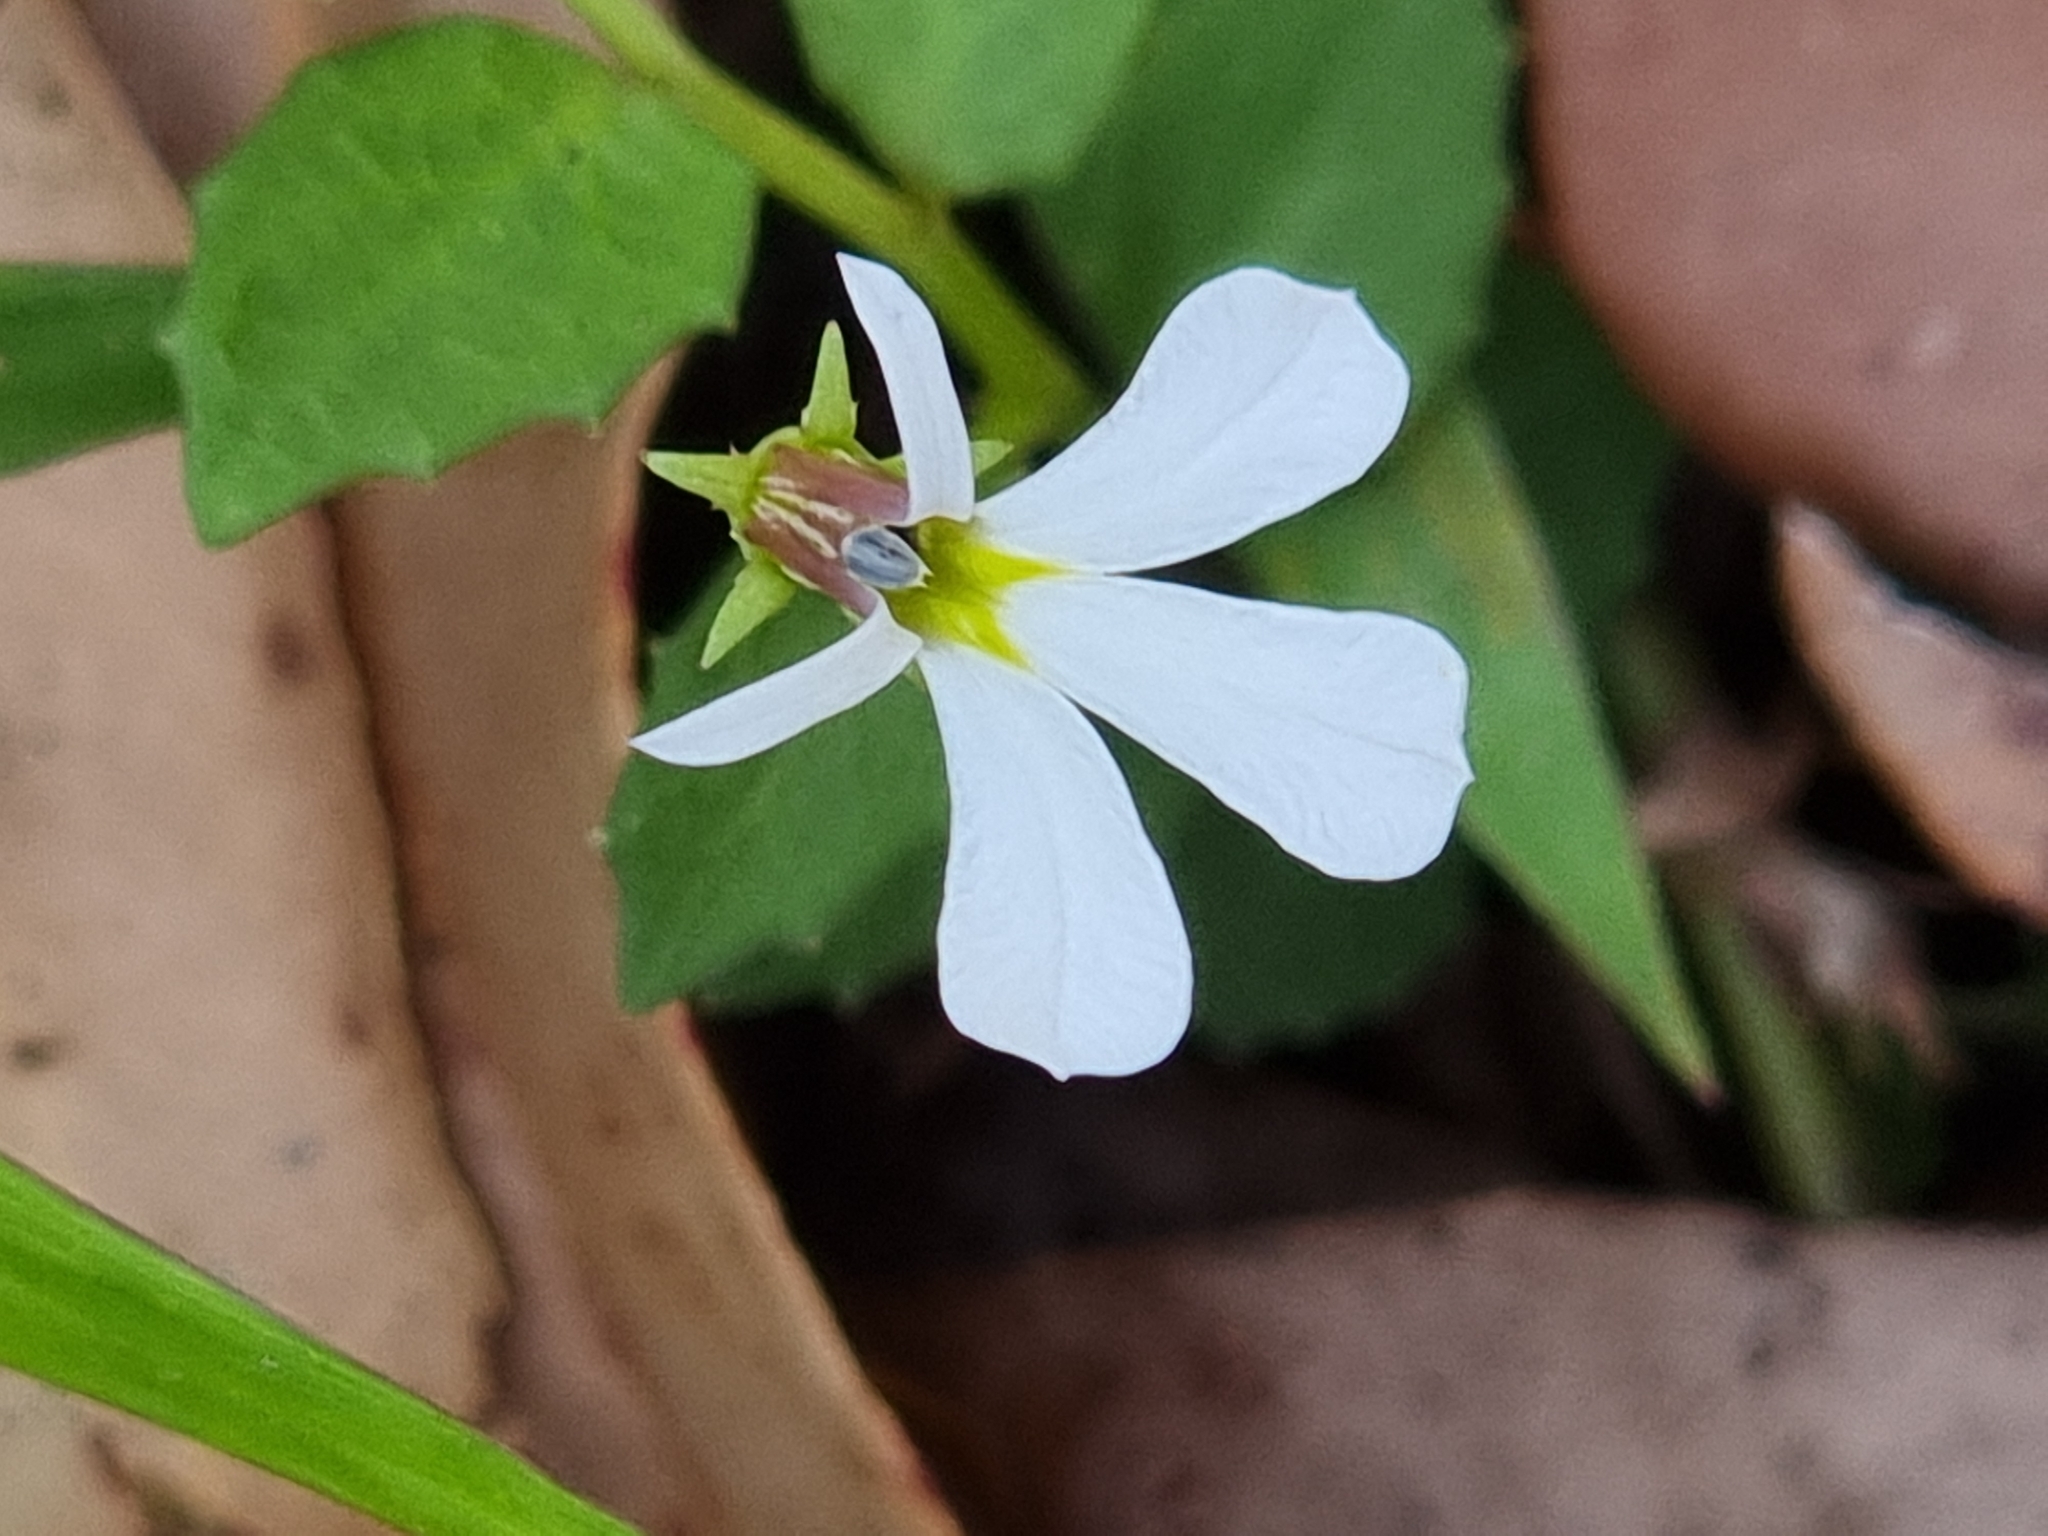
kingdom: Plantae
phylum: Tracheophyta
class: Magnoliopsida
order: Asterales
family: Campanulaceae
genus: Lobelia
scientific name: Lobelia purpurascens
